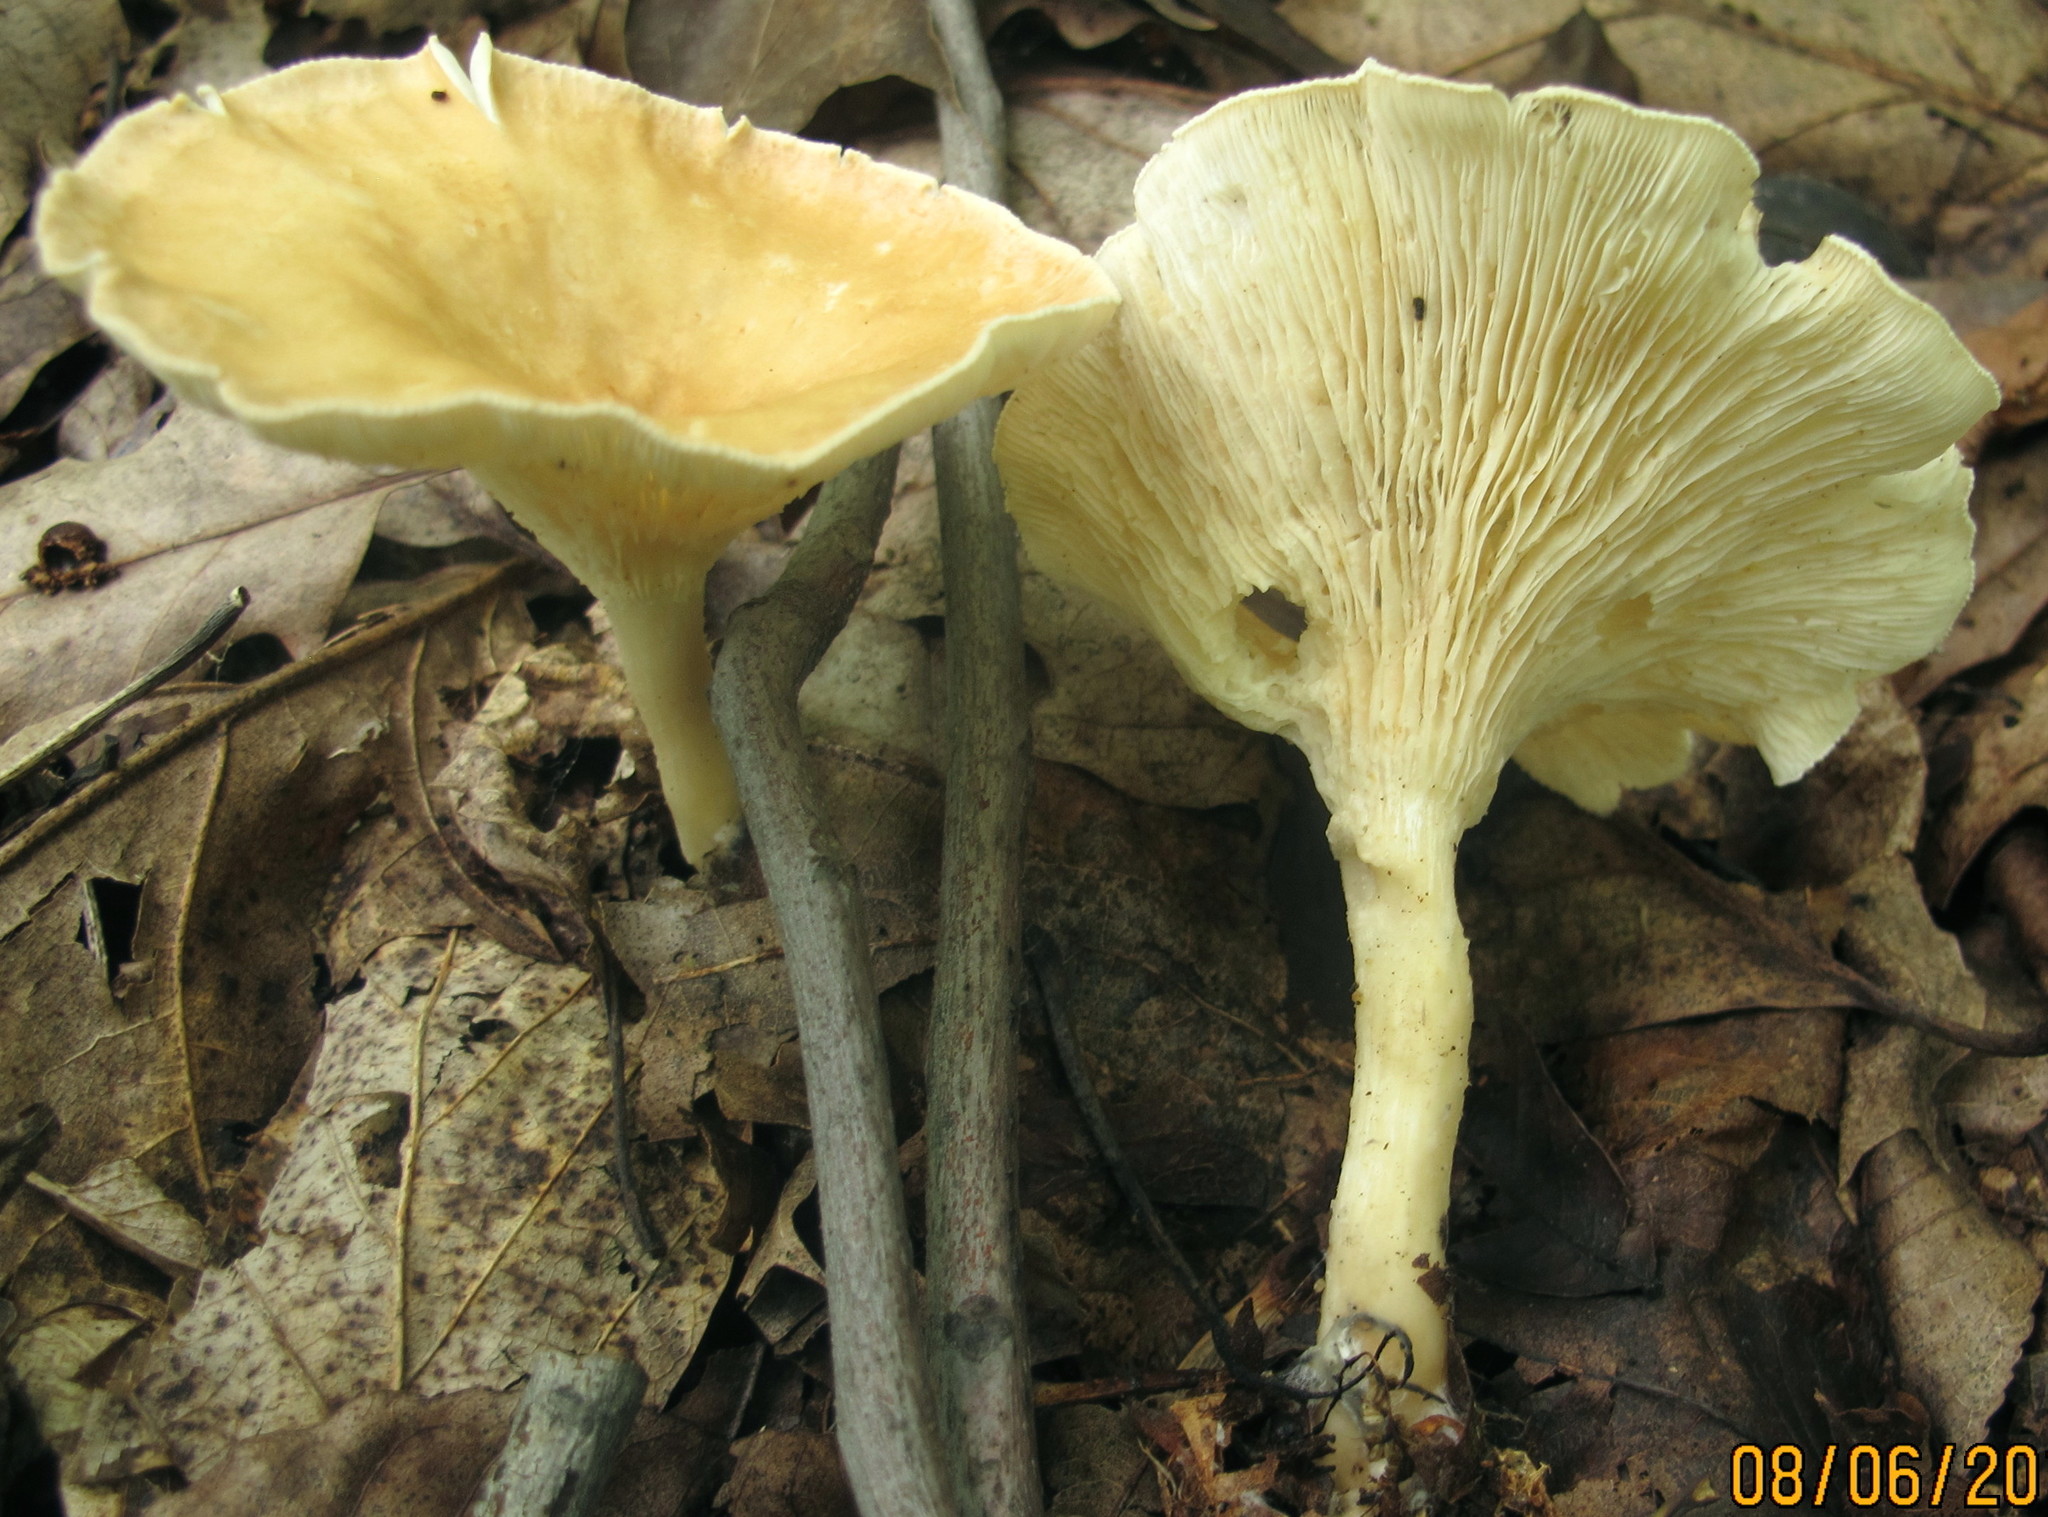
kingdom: Fungi
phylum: Basidiomycota
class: Agaricomycetes
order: Agaricales
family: Tricholomataceae
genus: Infundibulicybe
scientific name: Infundibulicybe gibba
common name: Common funnel
